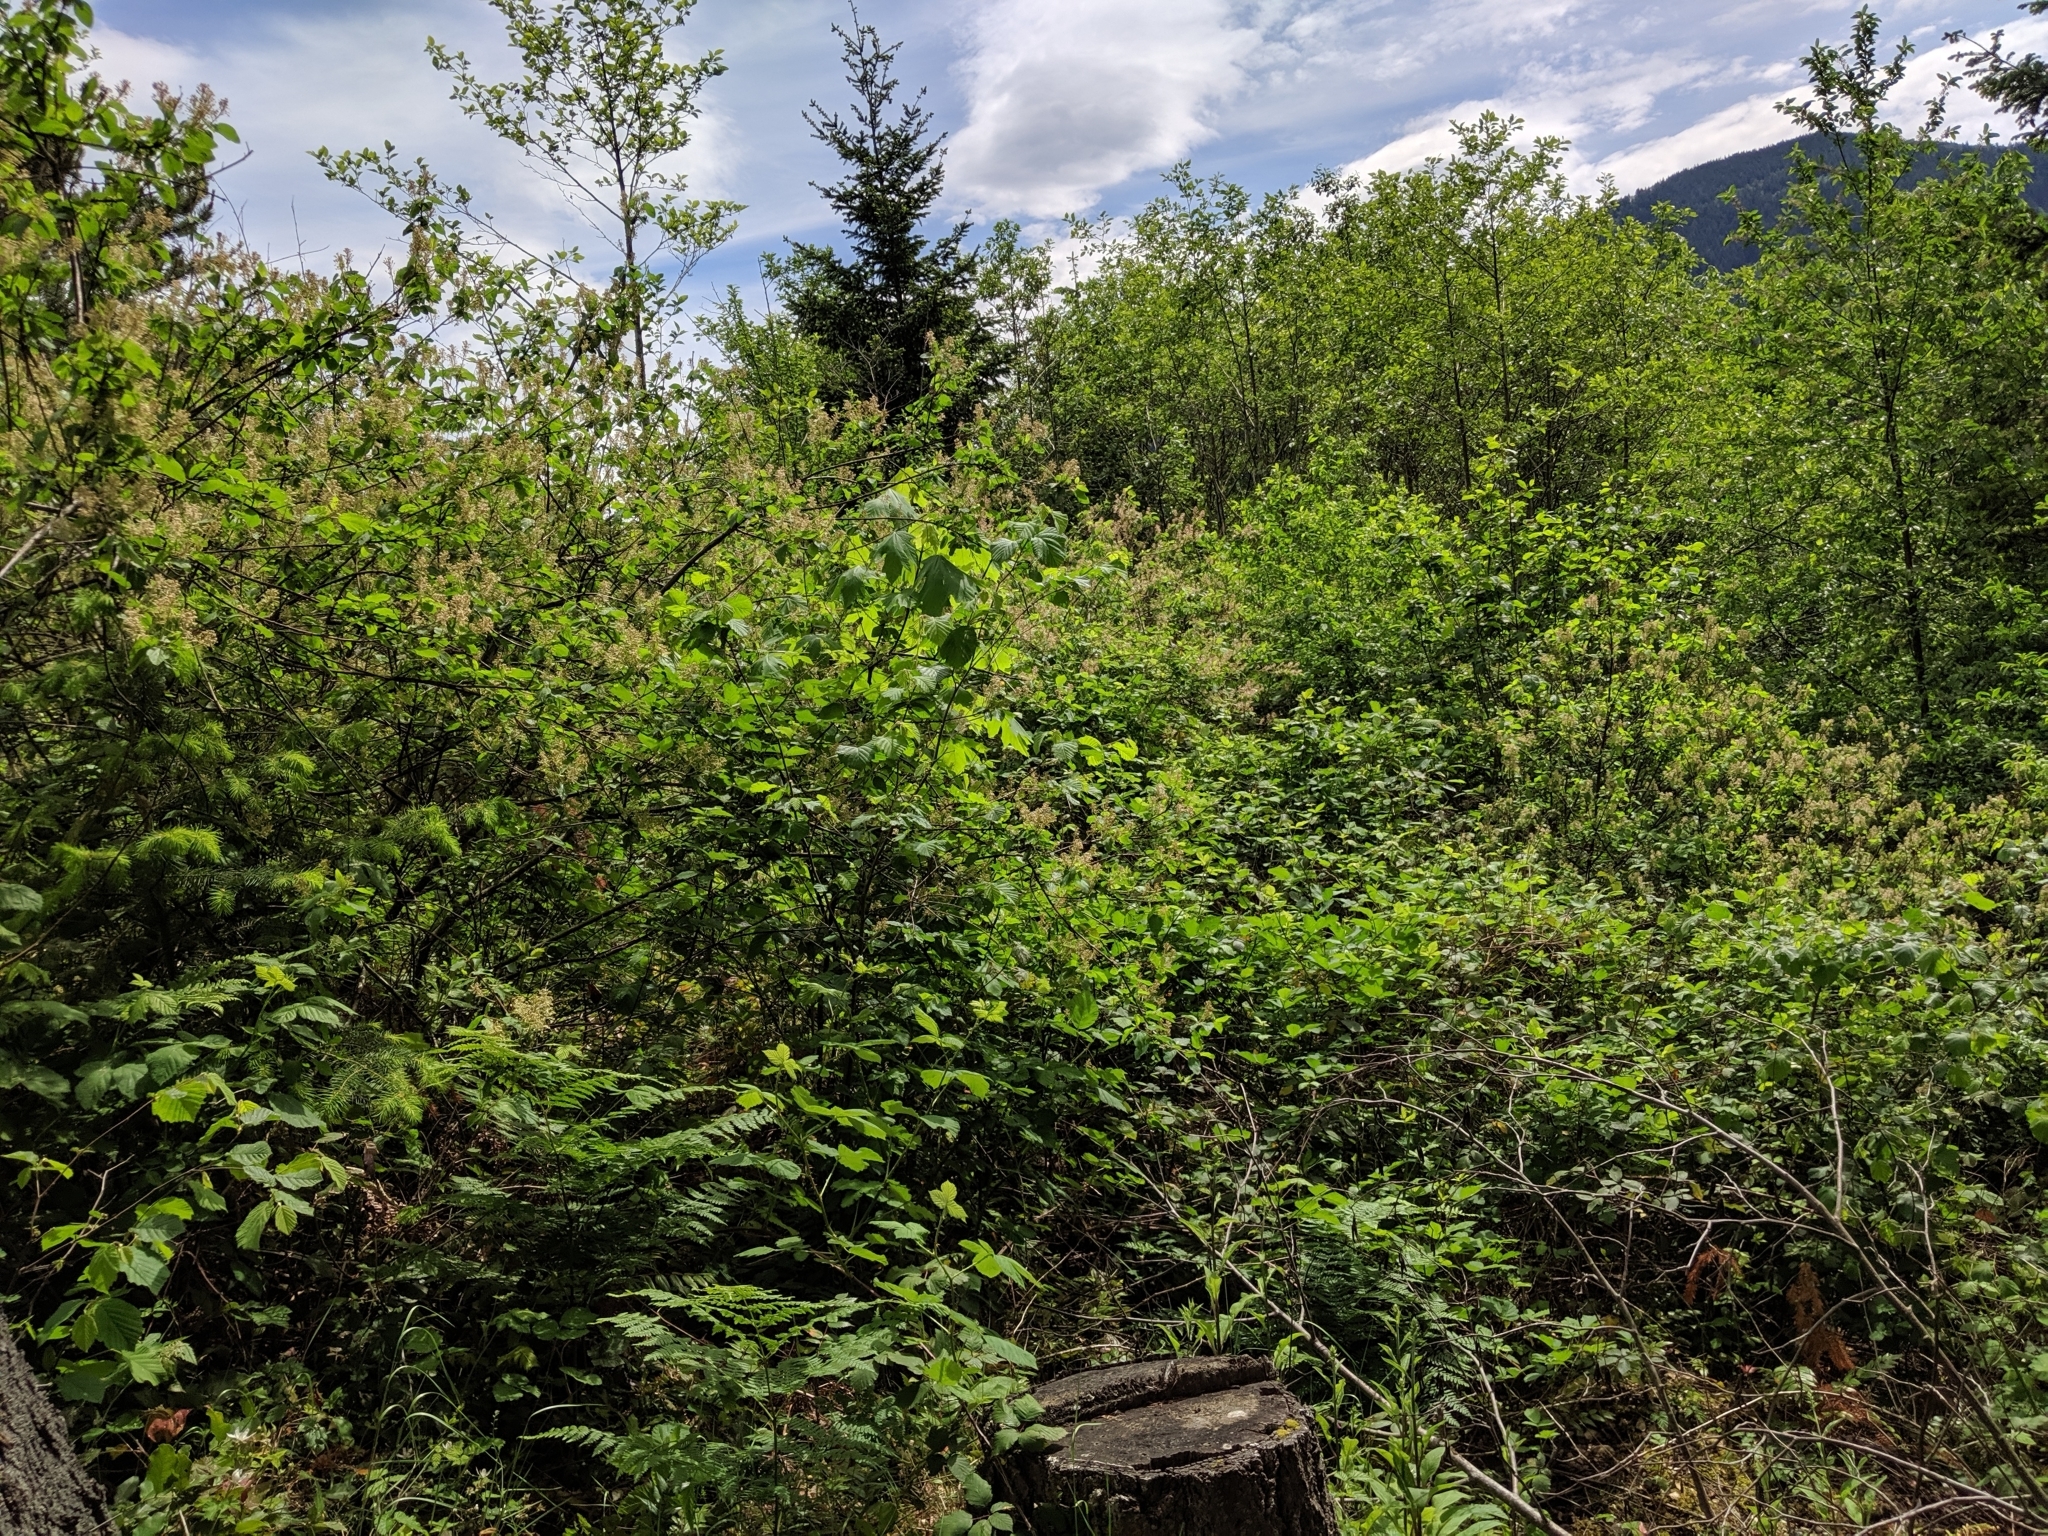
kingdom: Plantae
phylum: Tracheophyta
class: Magnoliopsida
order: Rosales
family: Rhamnaceae
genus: Ceanothus
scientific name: Ceanothus sanguineus
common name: Teatree
